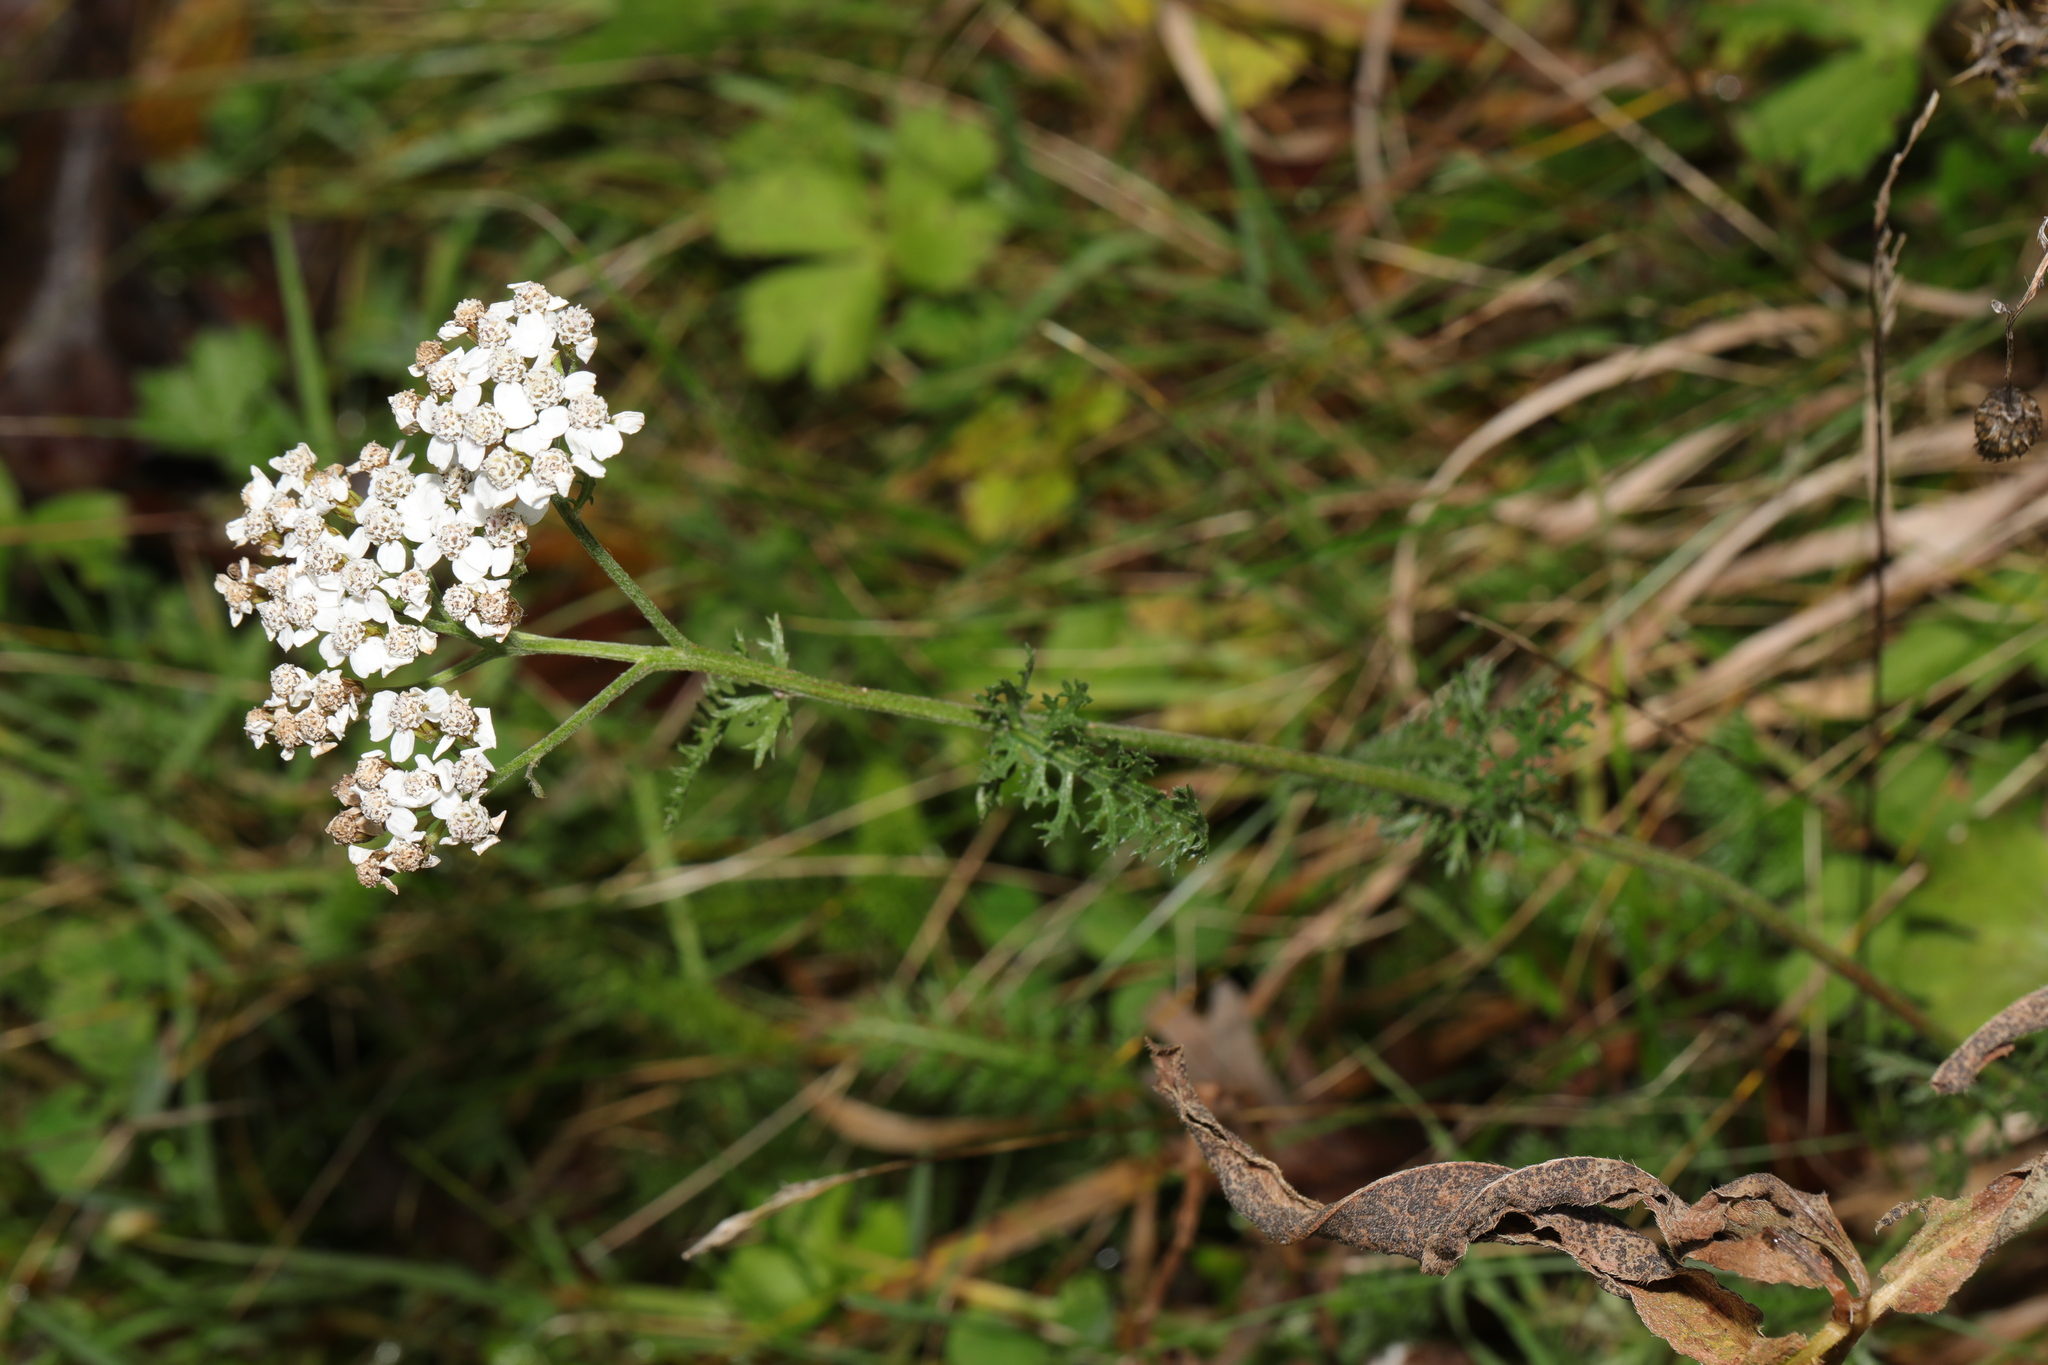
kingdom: Plantae
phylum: Tracheophyta
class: Magnoliopsida
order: Asterales
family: Asteraceae
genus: Achillea
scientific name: Achillea millefolium
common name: Yarrow
